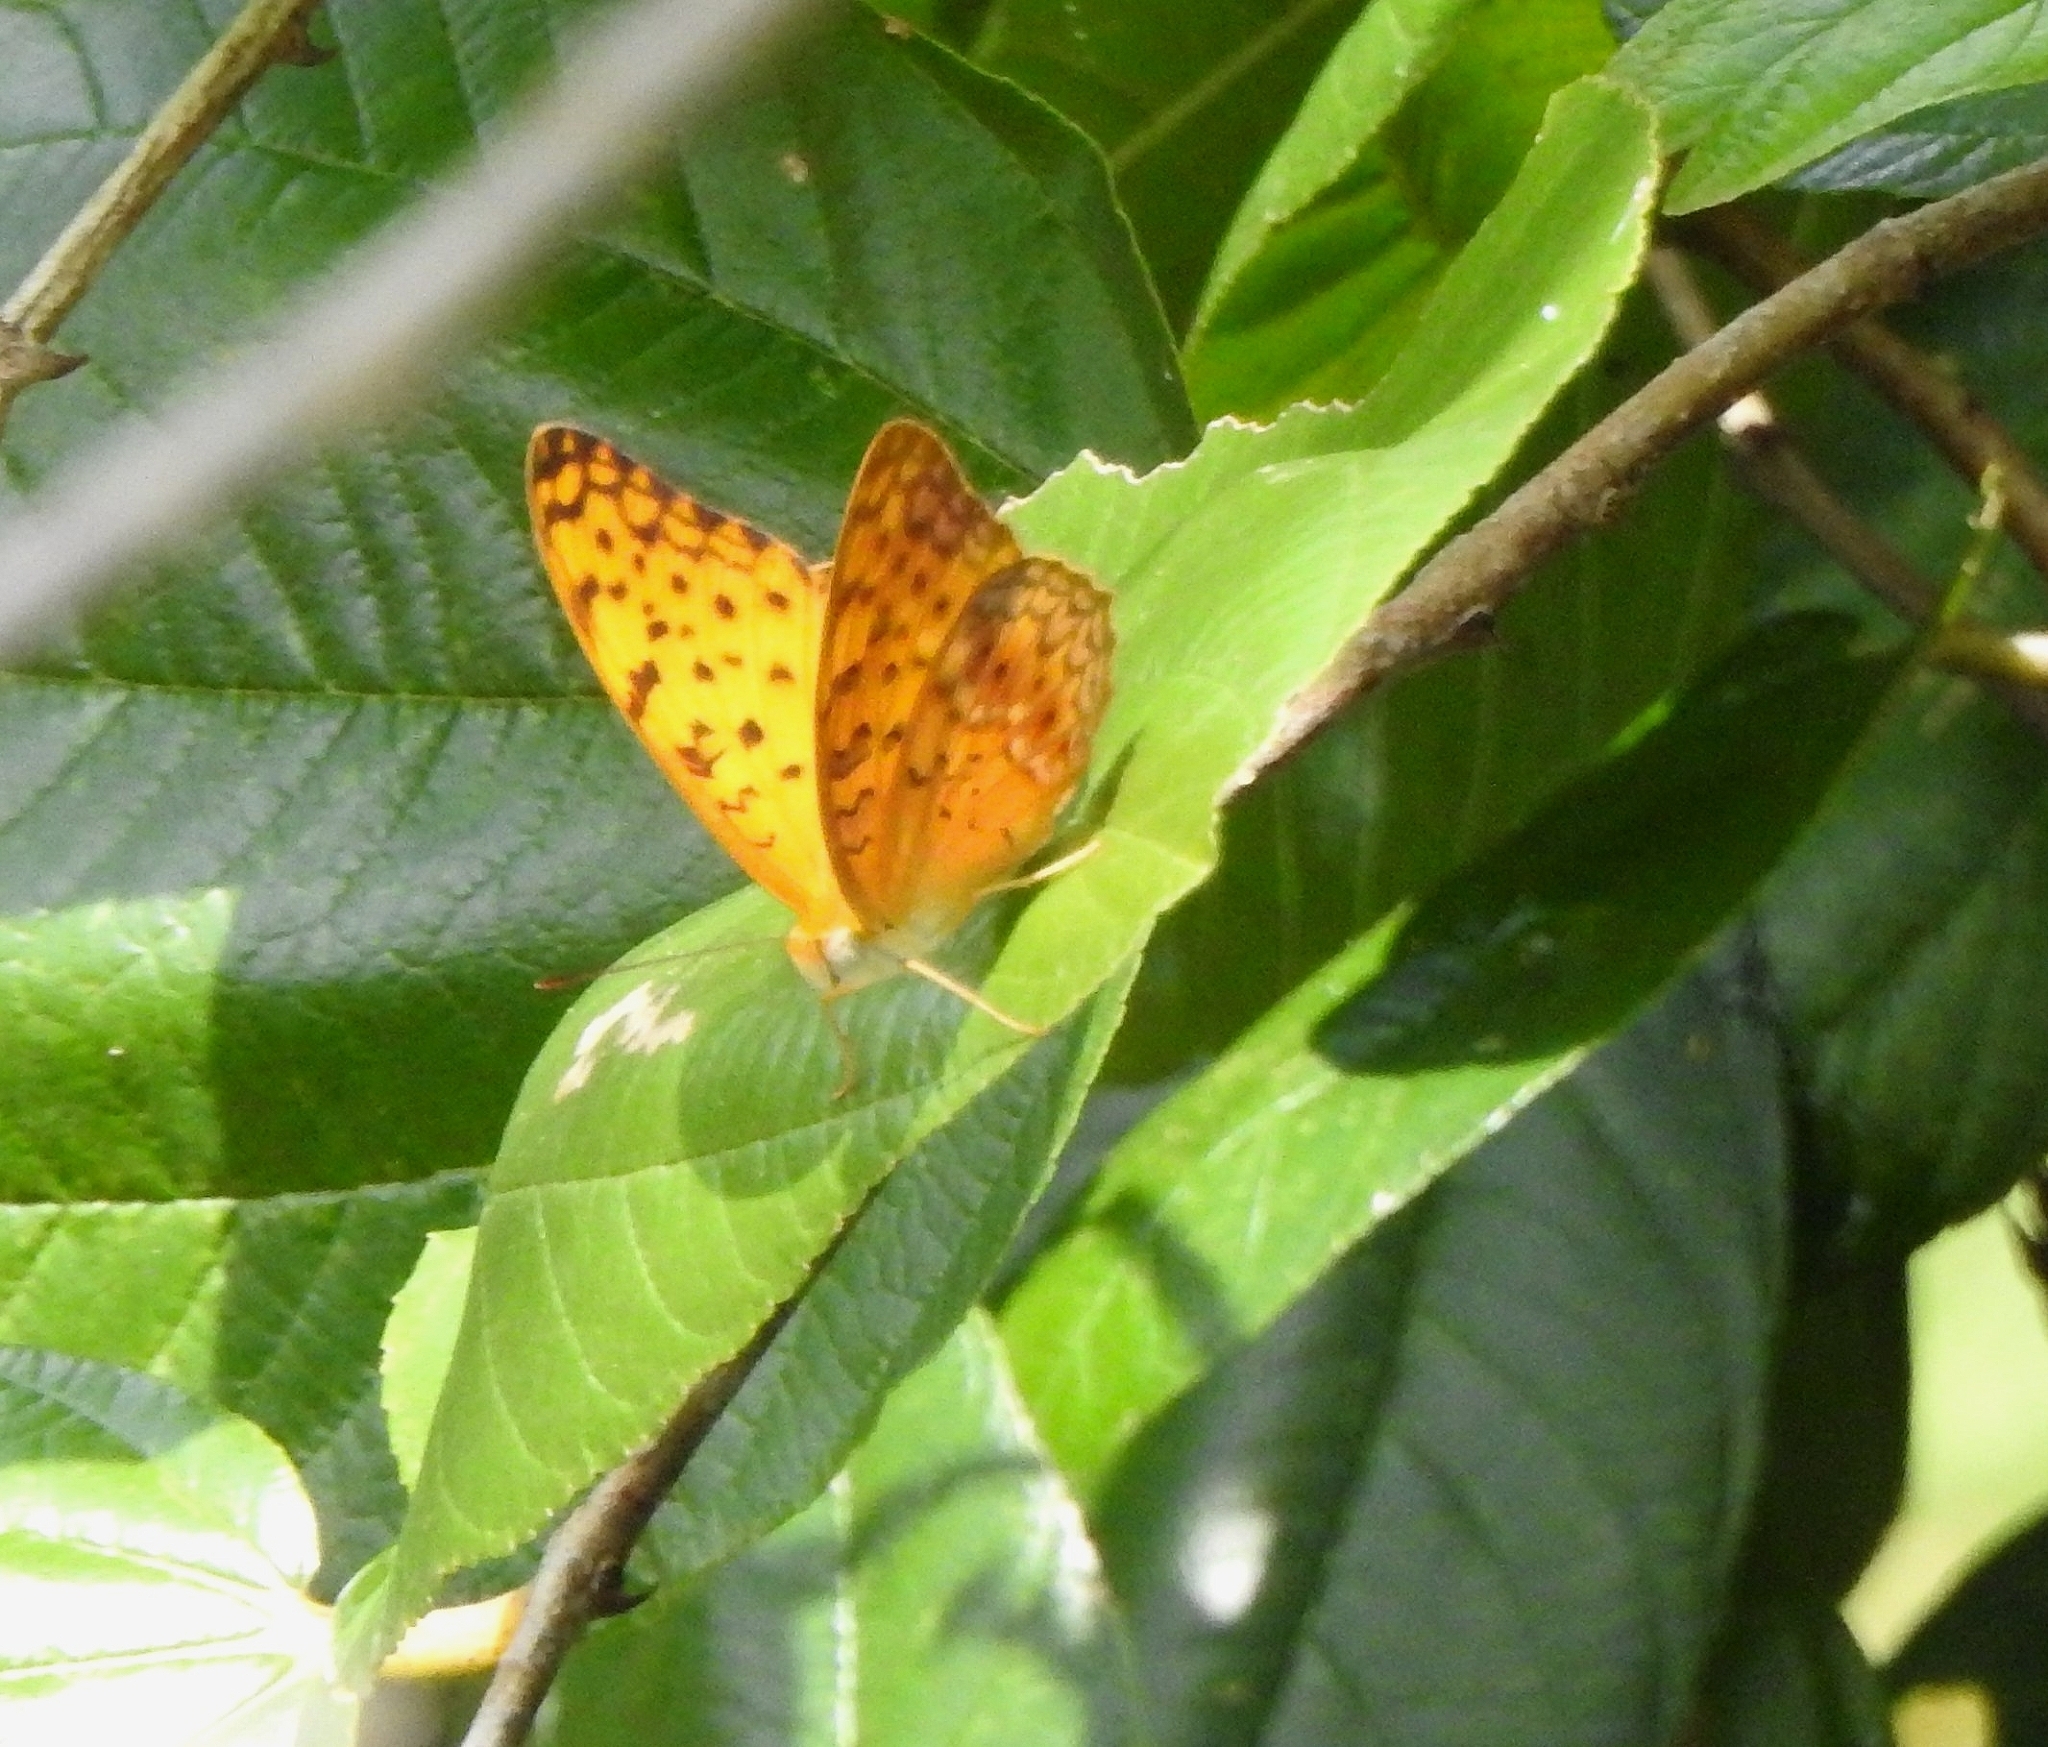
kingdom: Animalia
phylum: Arthropoda
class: Insecta
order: Lepidoptera
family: Nymphalidae
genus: Phalanta
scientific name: Phalanta phalantha
